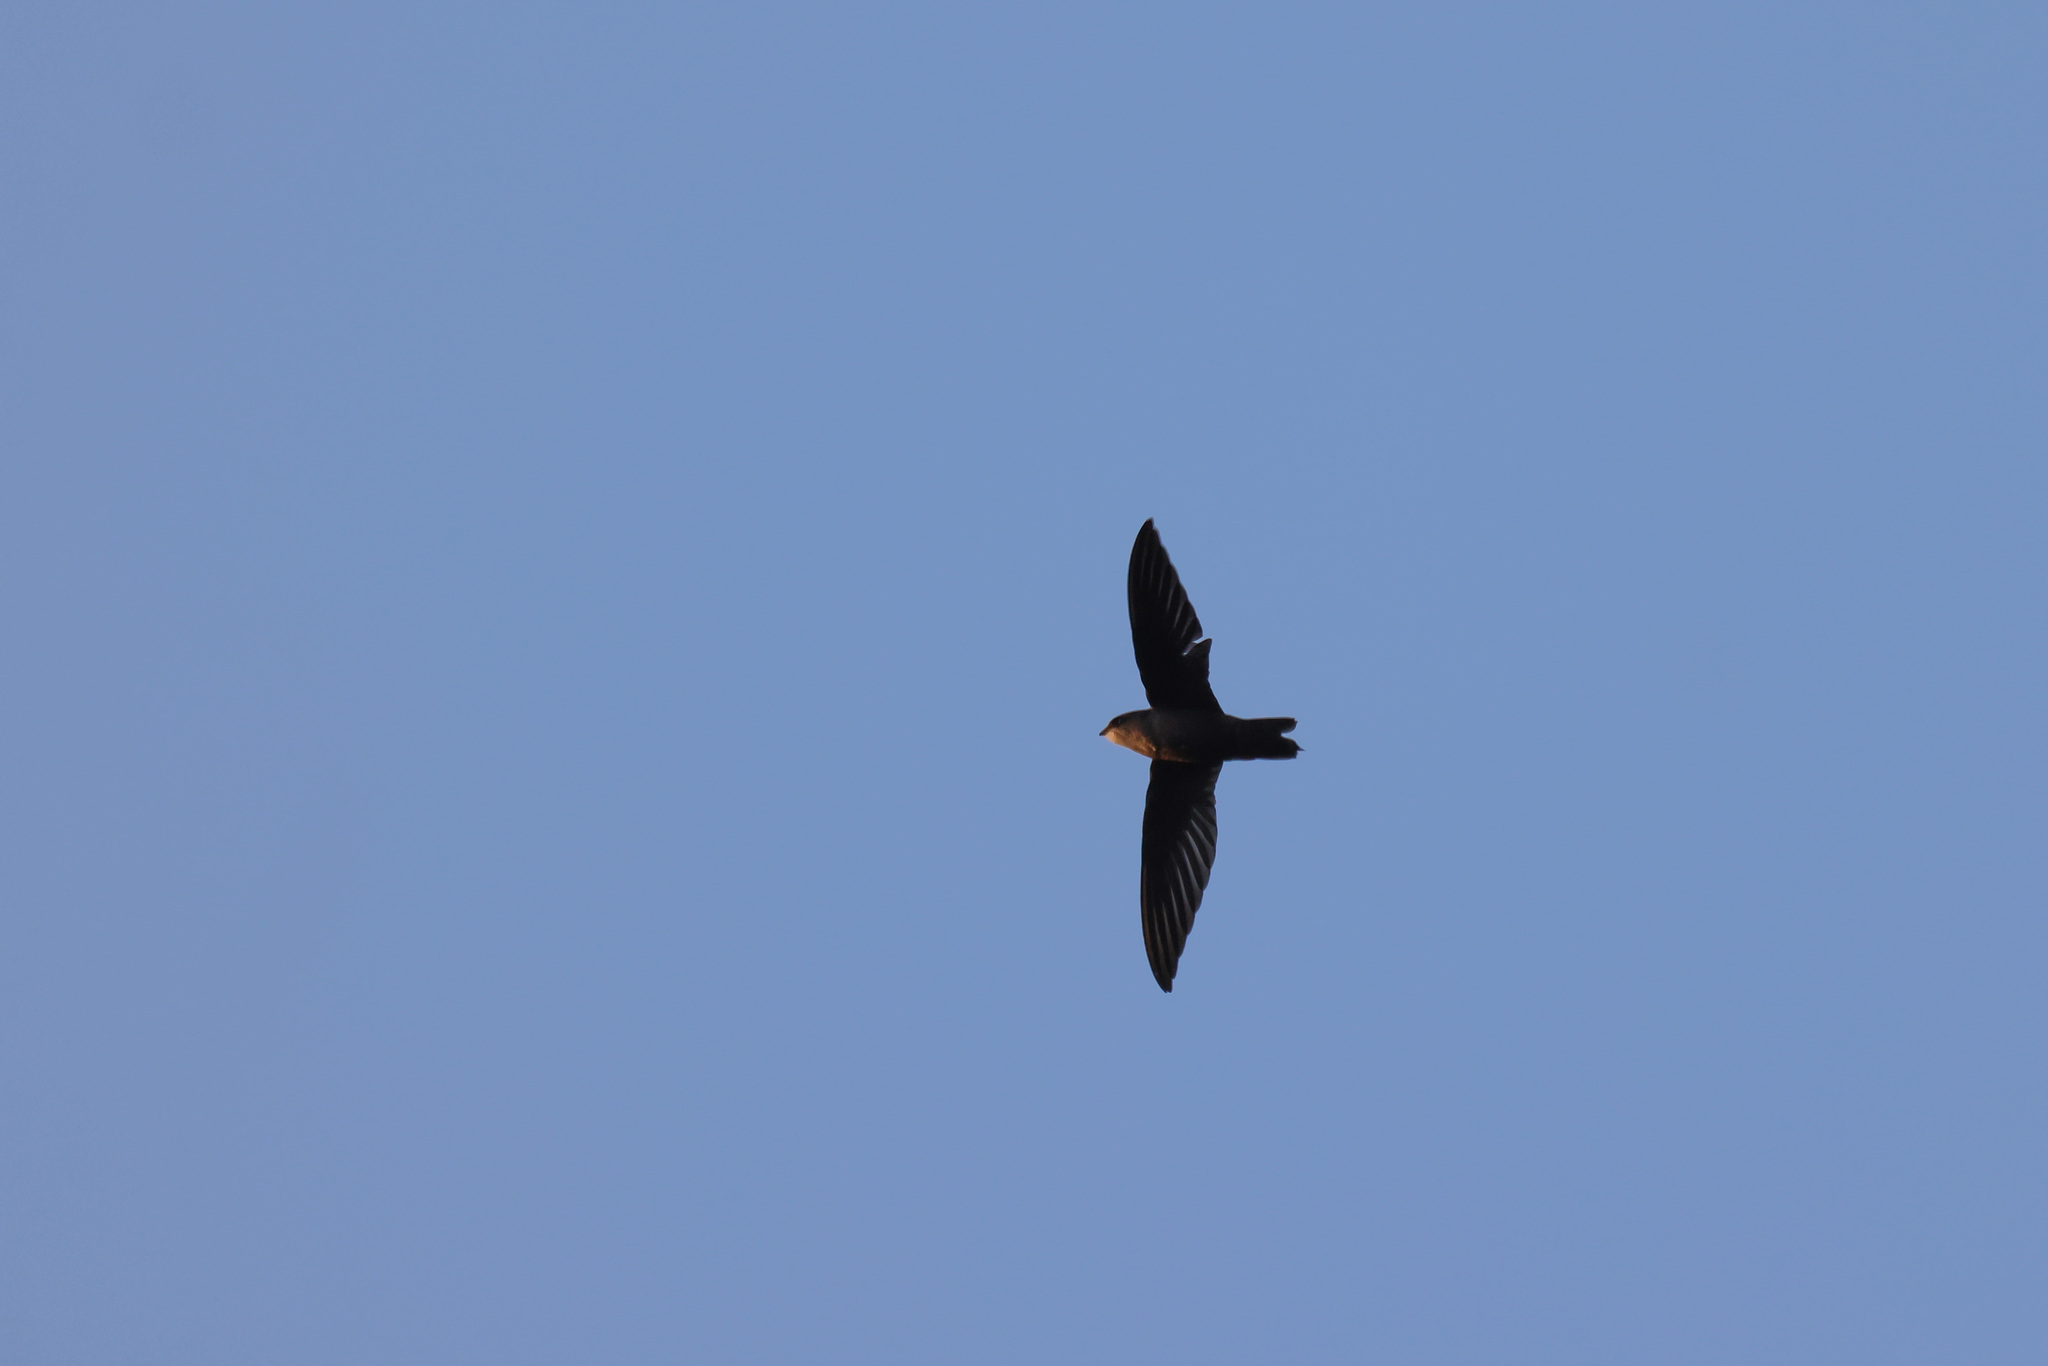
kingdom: Animalia
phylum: Chordata
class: Aves
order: Apodiformes
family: Apodidae
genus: Chaetura
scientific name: Chaetura pelagica
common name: Chimney swift
